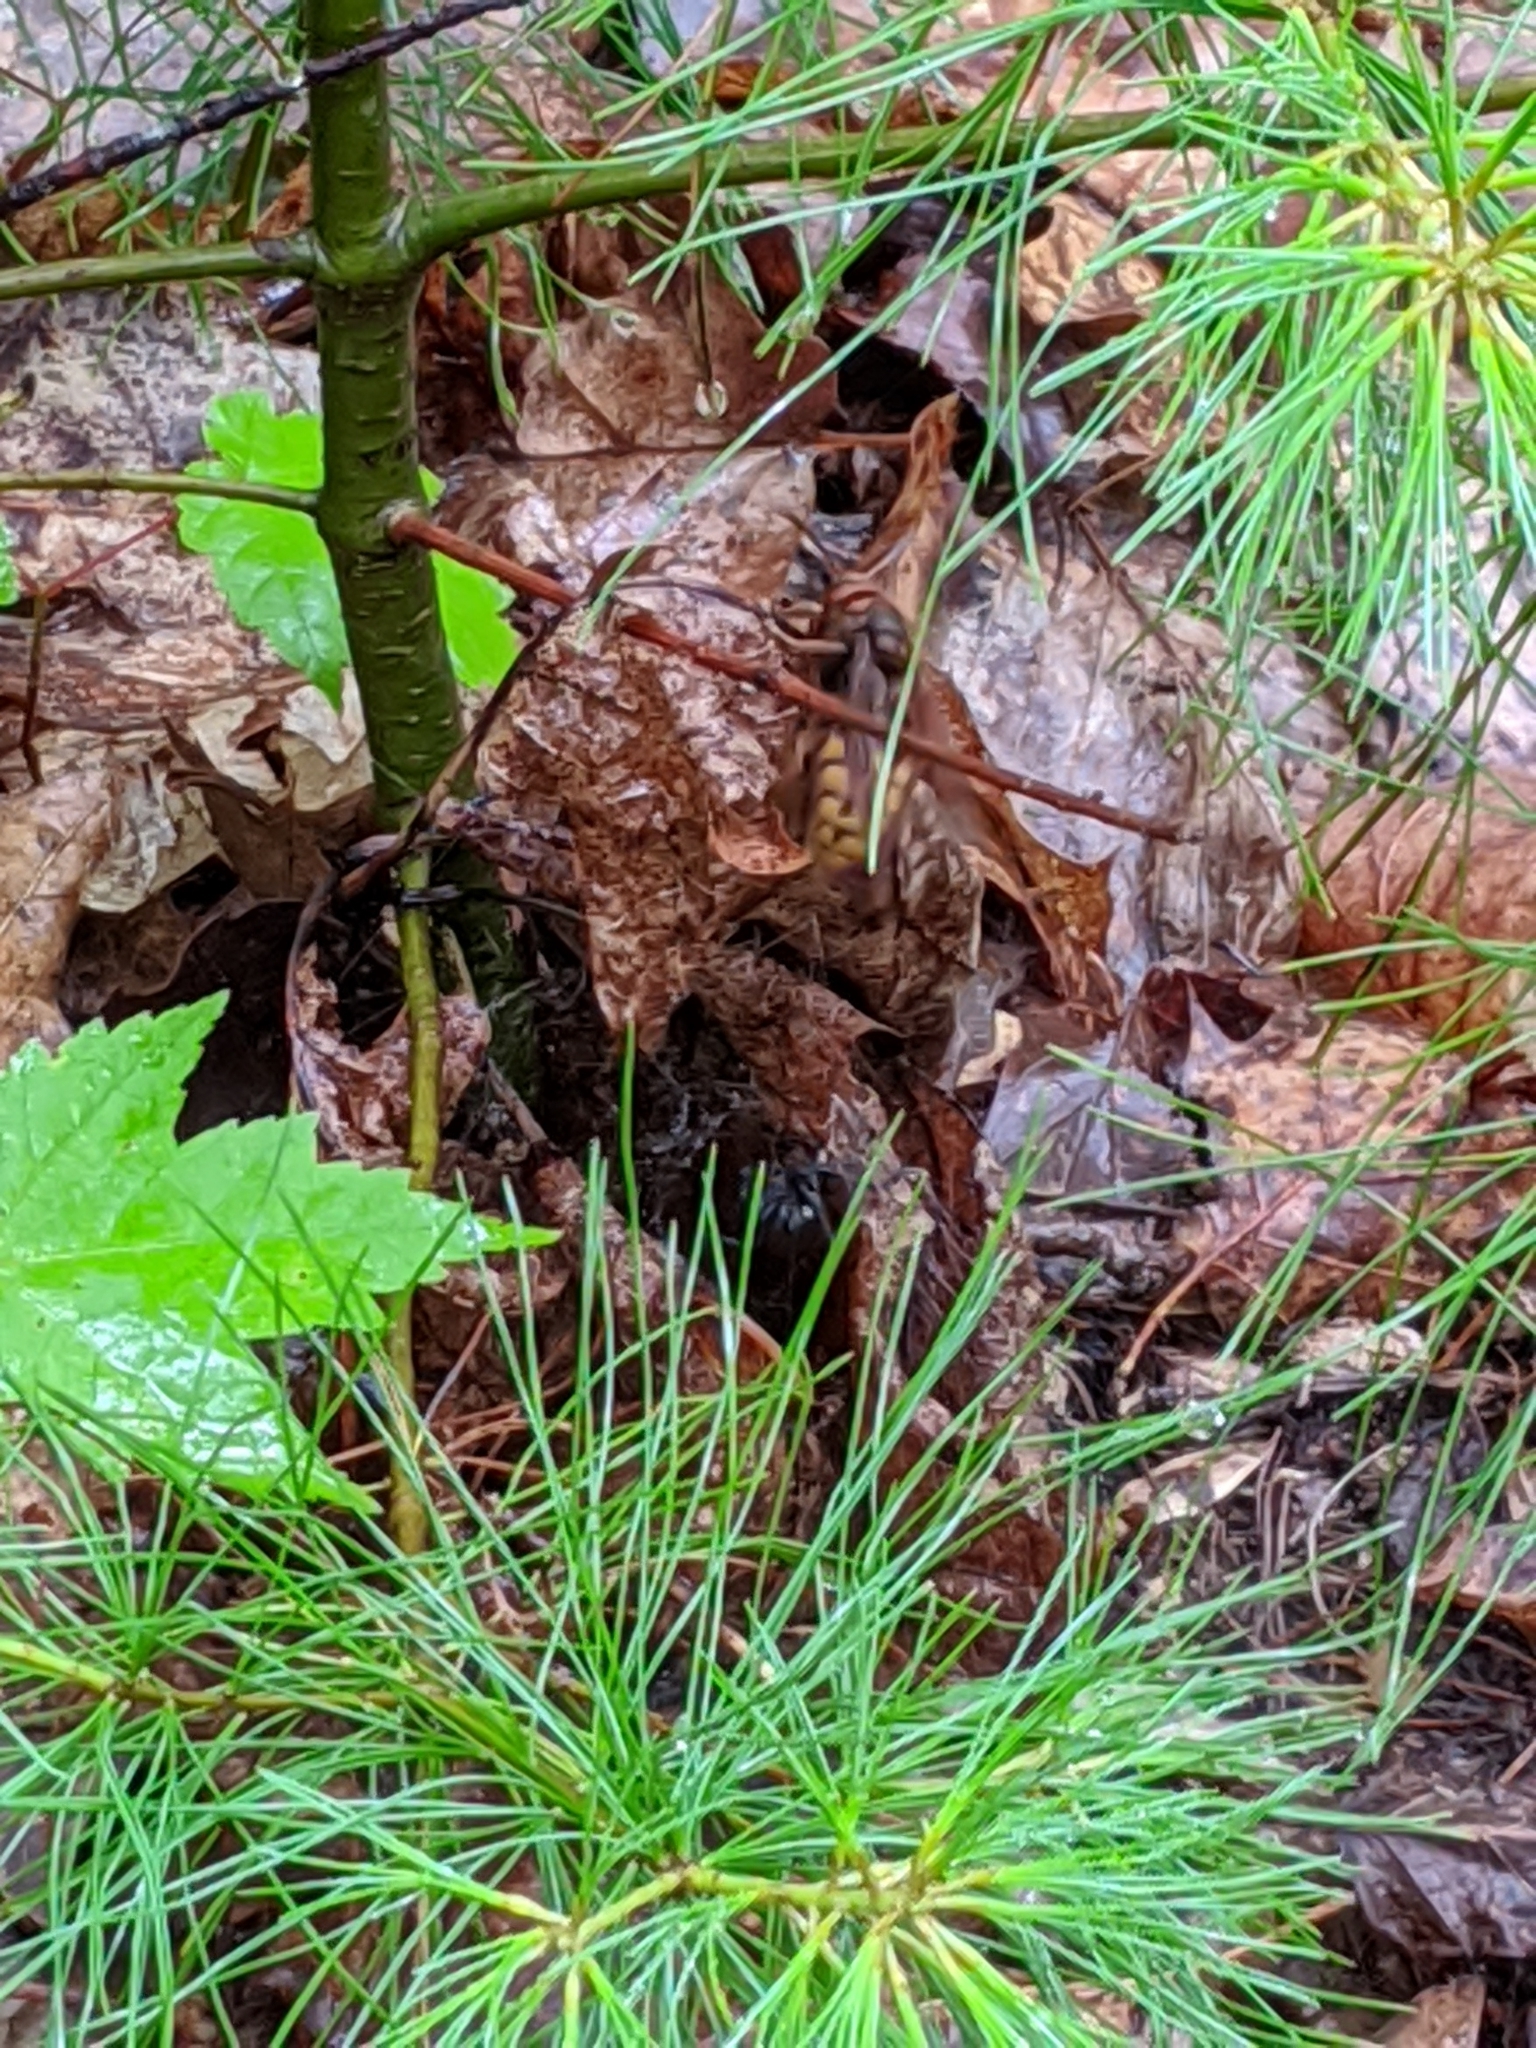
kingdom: Animalia
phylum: Arthropoda
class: Insecta
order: Hymenoptera
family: Vespidae
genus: Vespa
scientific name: Vespa crabro
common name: Hornet
